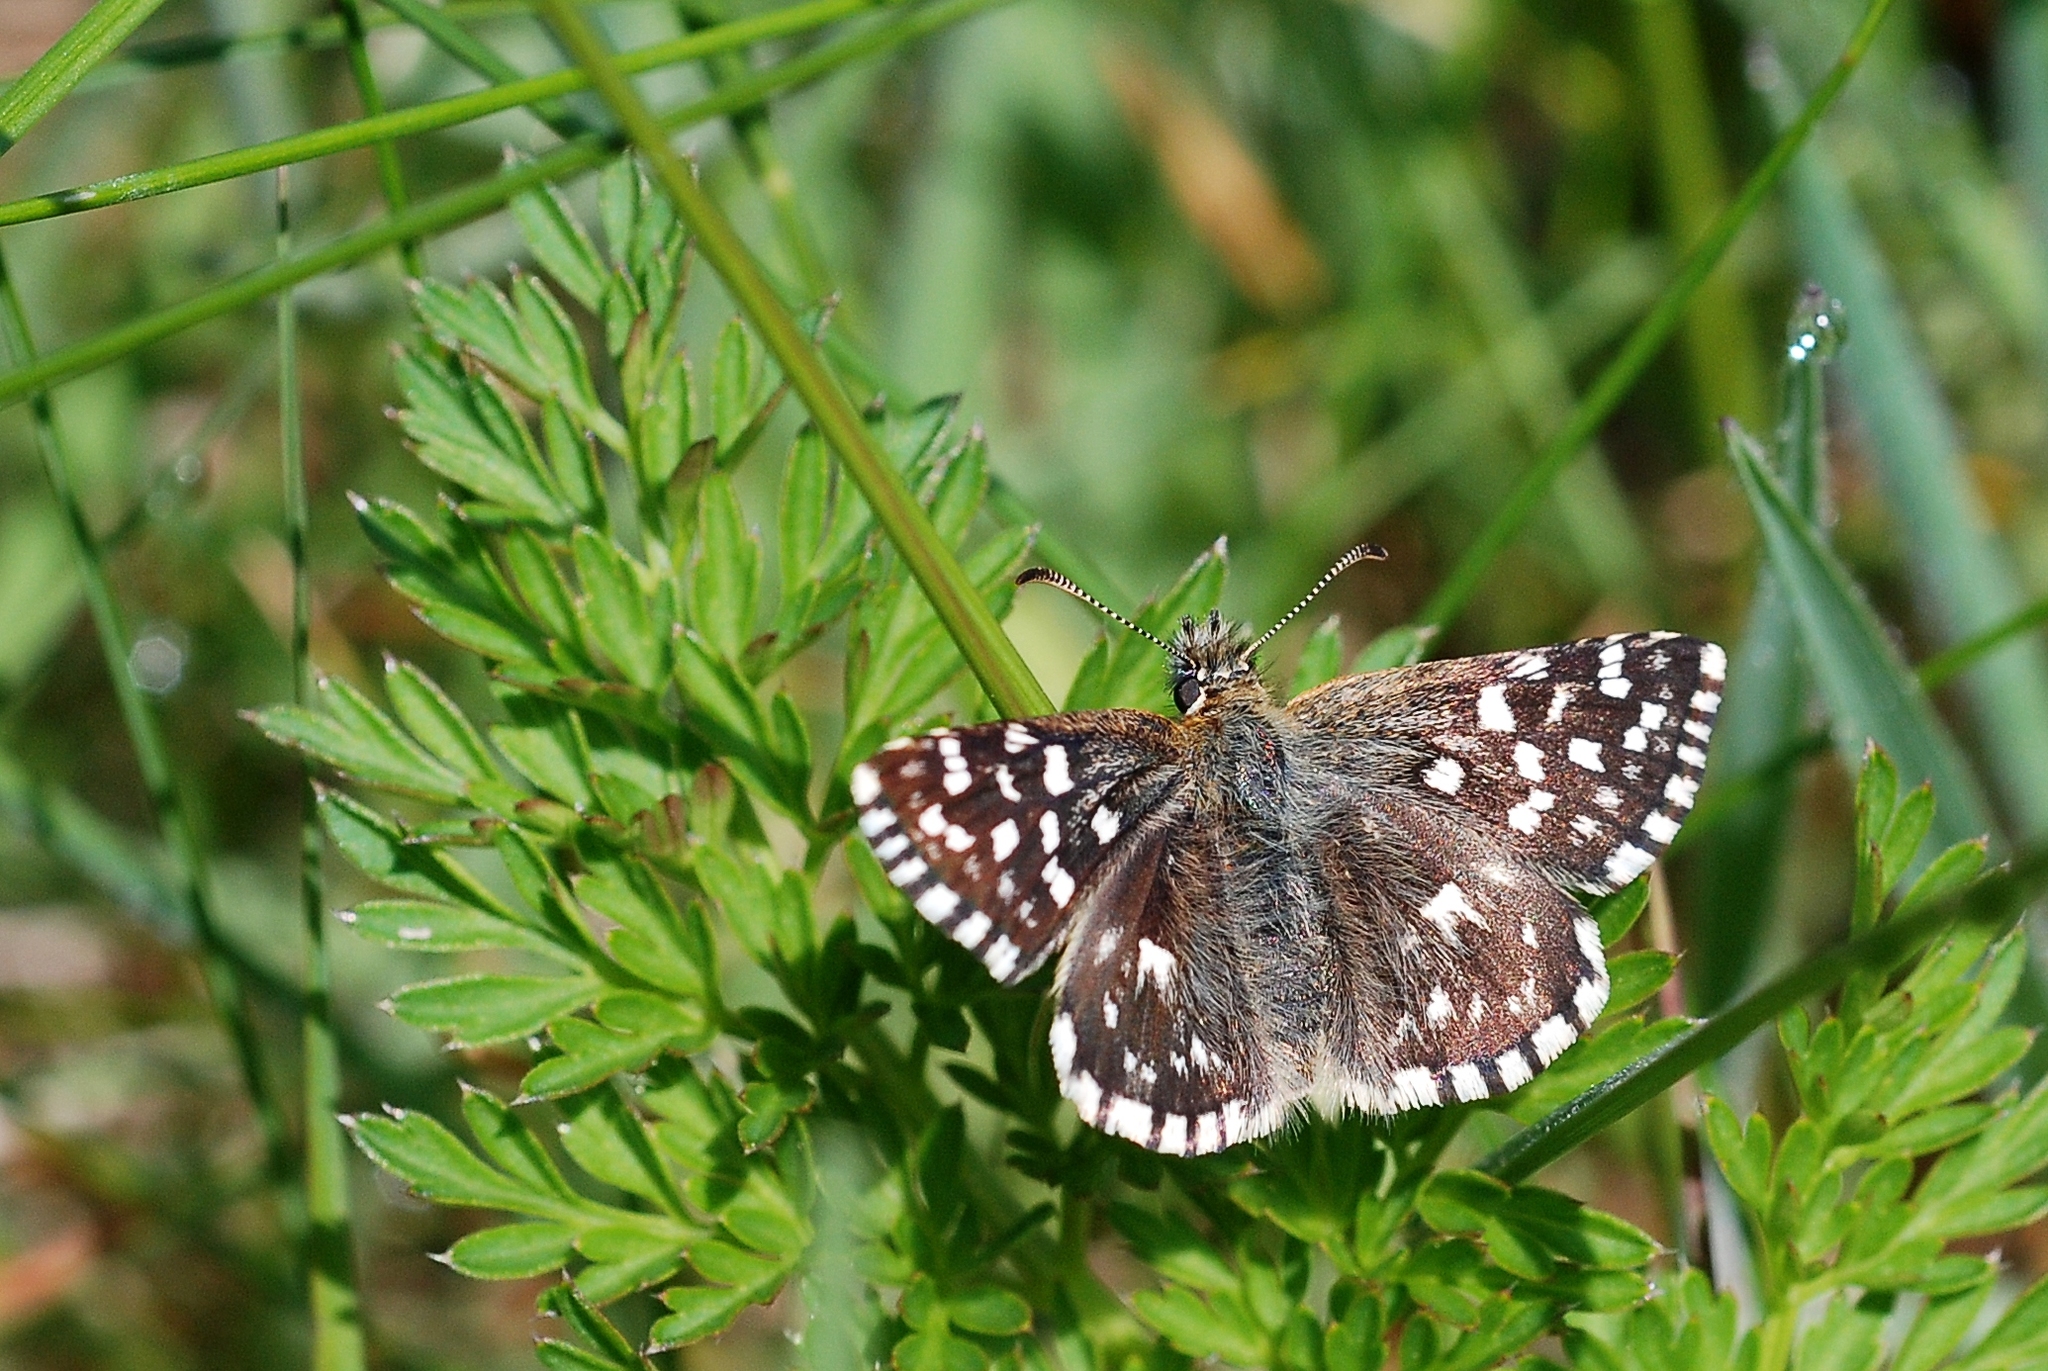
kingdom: Animalia
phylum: Arthropoda
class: Insecta
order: Lepidoptera
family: Hesperiidae
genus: Pyrgus
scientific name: Pyrgus malvae
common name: Grizzled skipper
